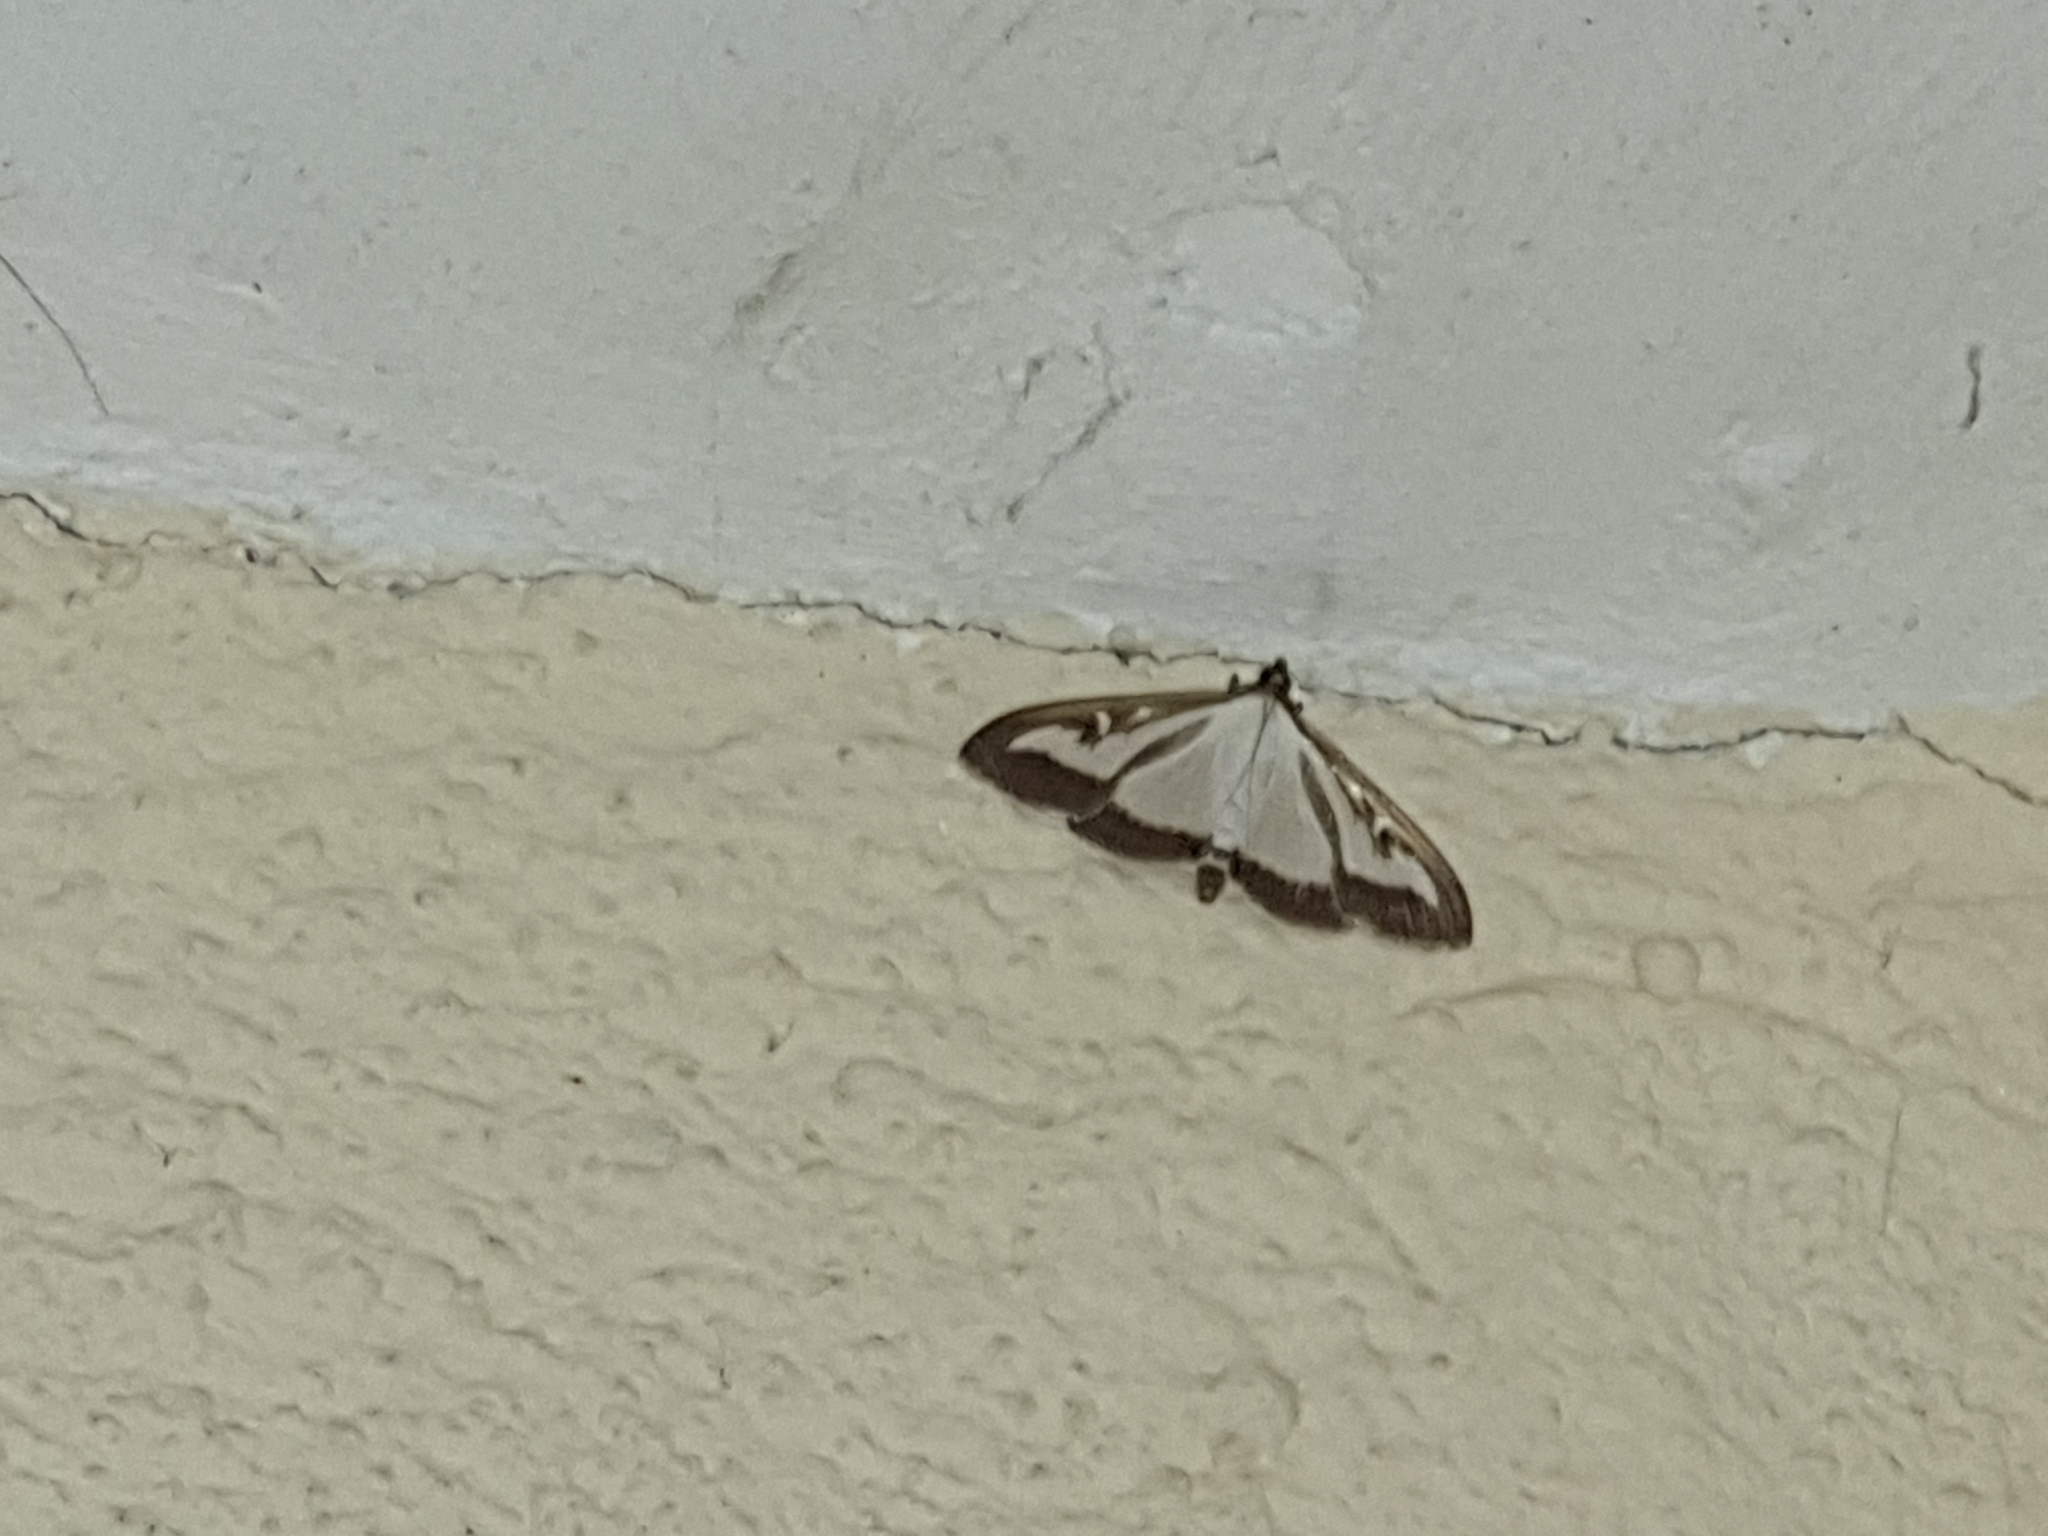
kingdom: Animalia
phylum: Arthropoda
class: Insecta
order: Lepidoptera
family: Crambidae
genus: Cydalima
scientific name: Cydalima perspectalis
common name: Box tree moth
